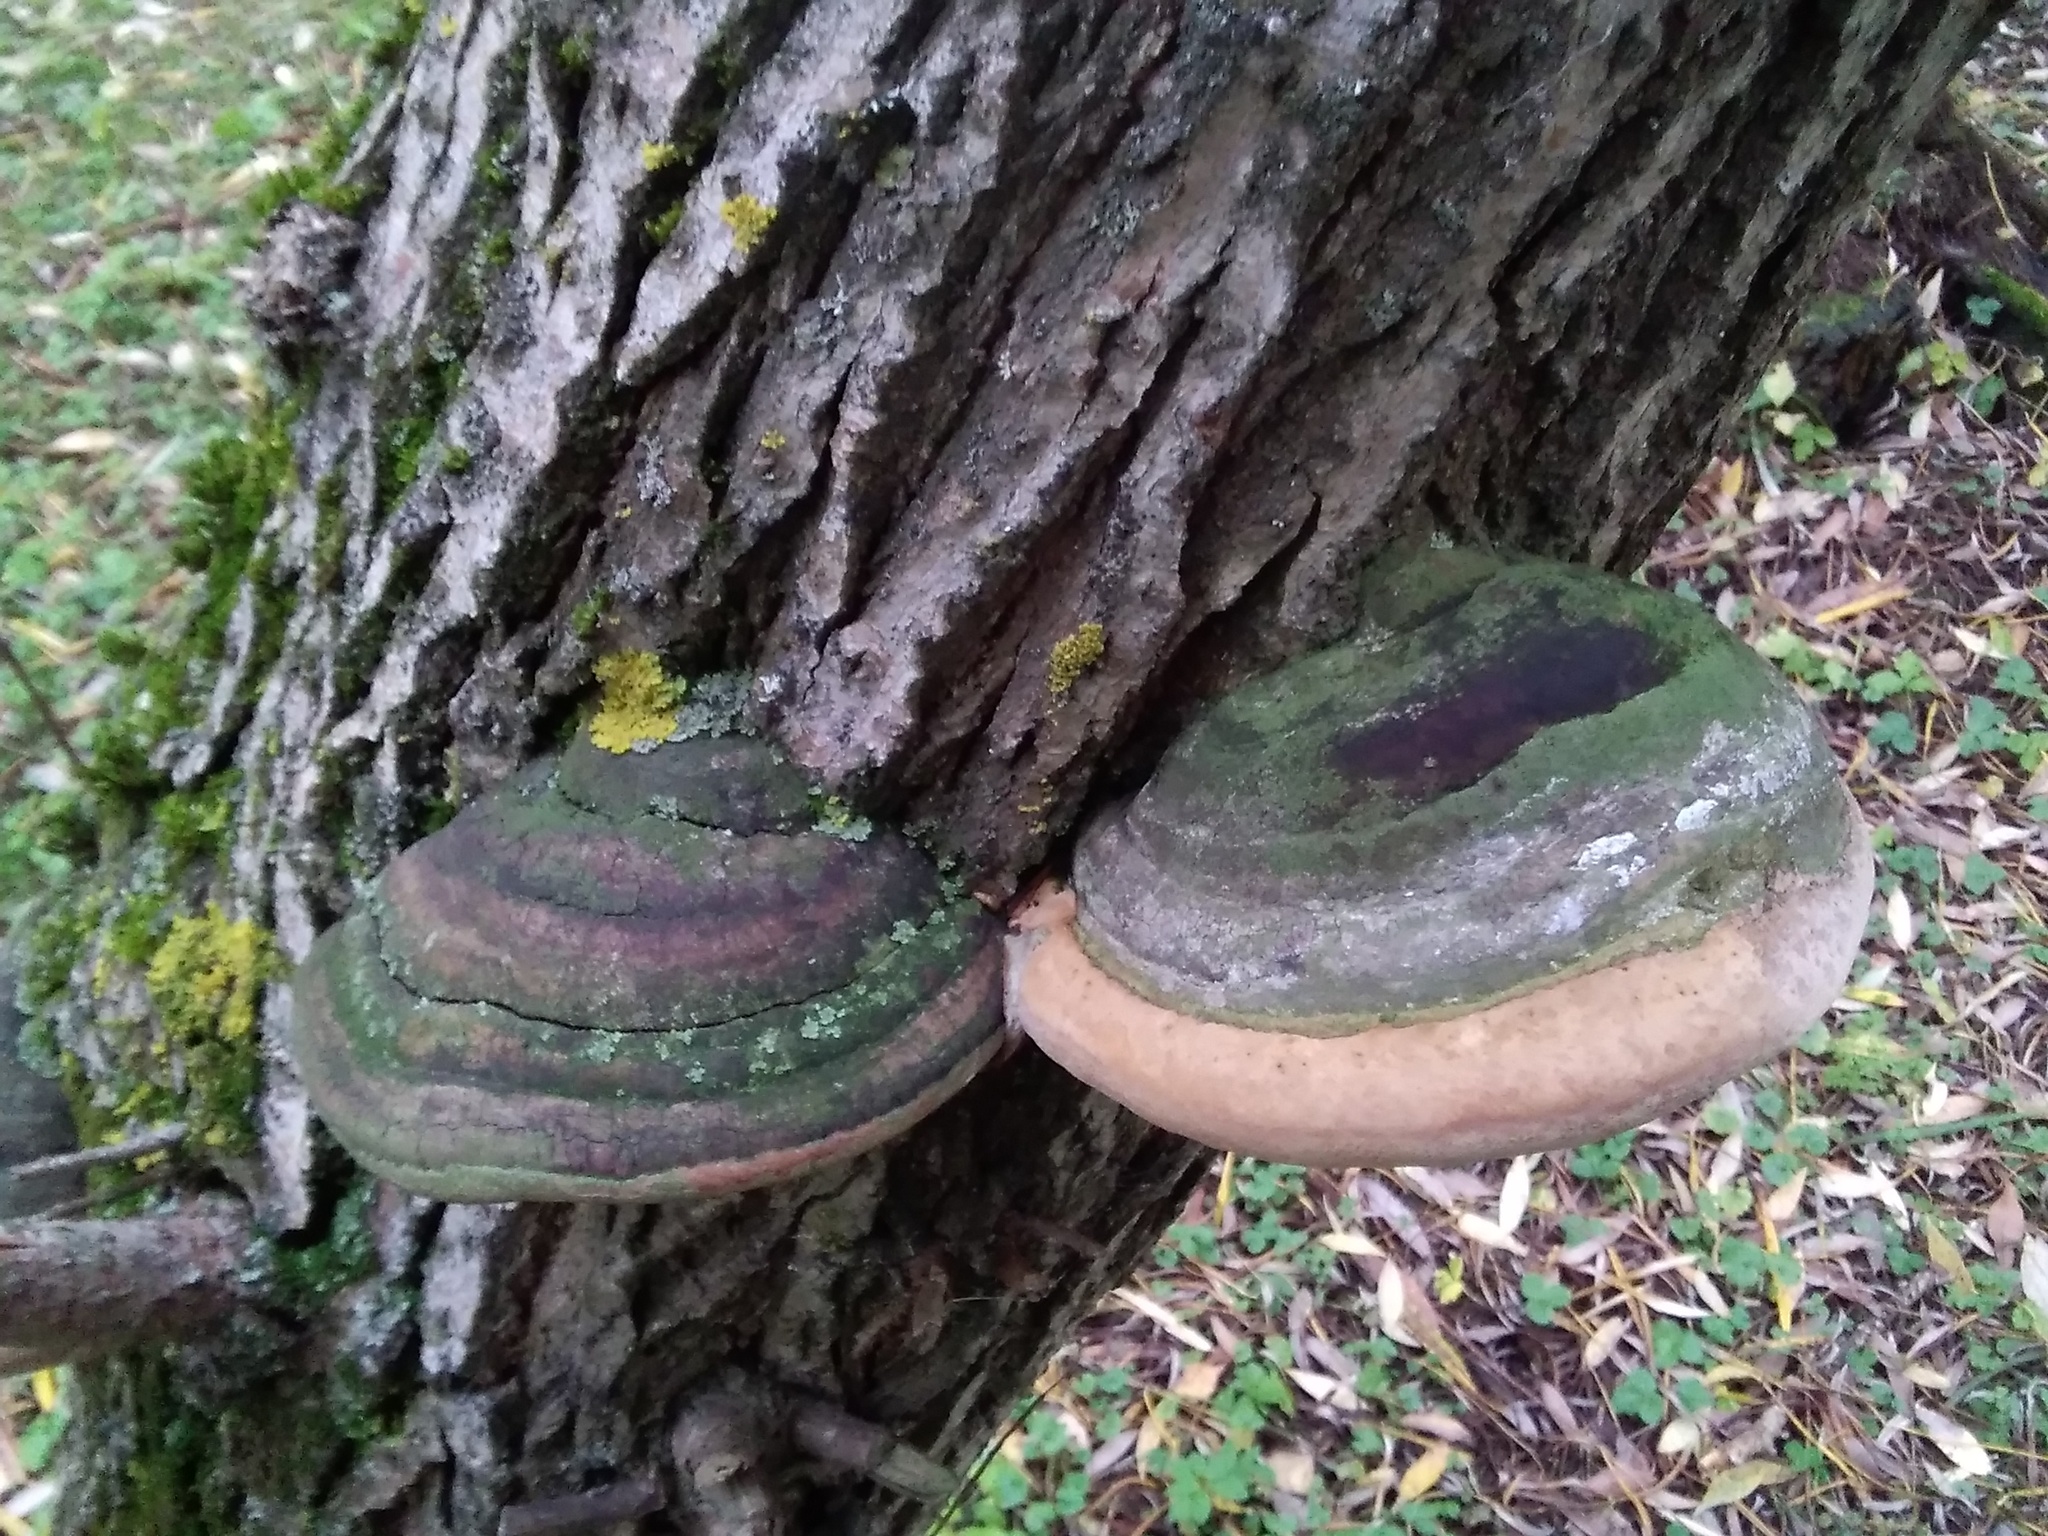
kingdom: Fungi
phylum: Basidiomycota
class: Agaricomycetes
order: Hymenochaetales
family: Hymenochaetaceae
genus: Phellinus
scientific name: Phellinus igniarius
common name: Willow bracket
